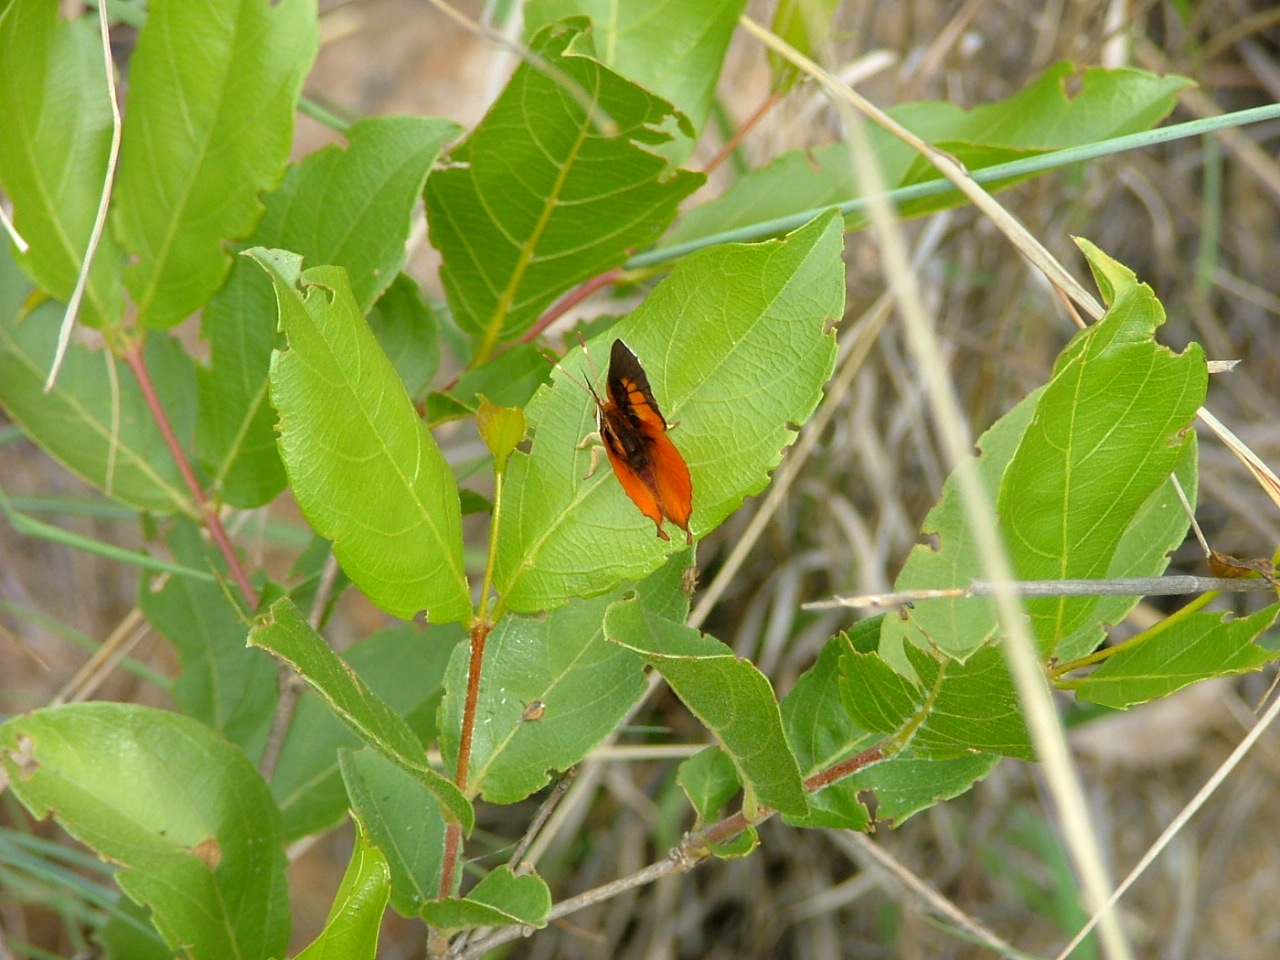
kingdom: Animalia
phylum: Arthropoda
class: Insecta
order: Lepidoptera
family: Lycaenidae
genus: Axiocerses
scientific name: Axiocerses amanga
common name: Bush scarlet
